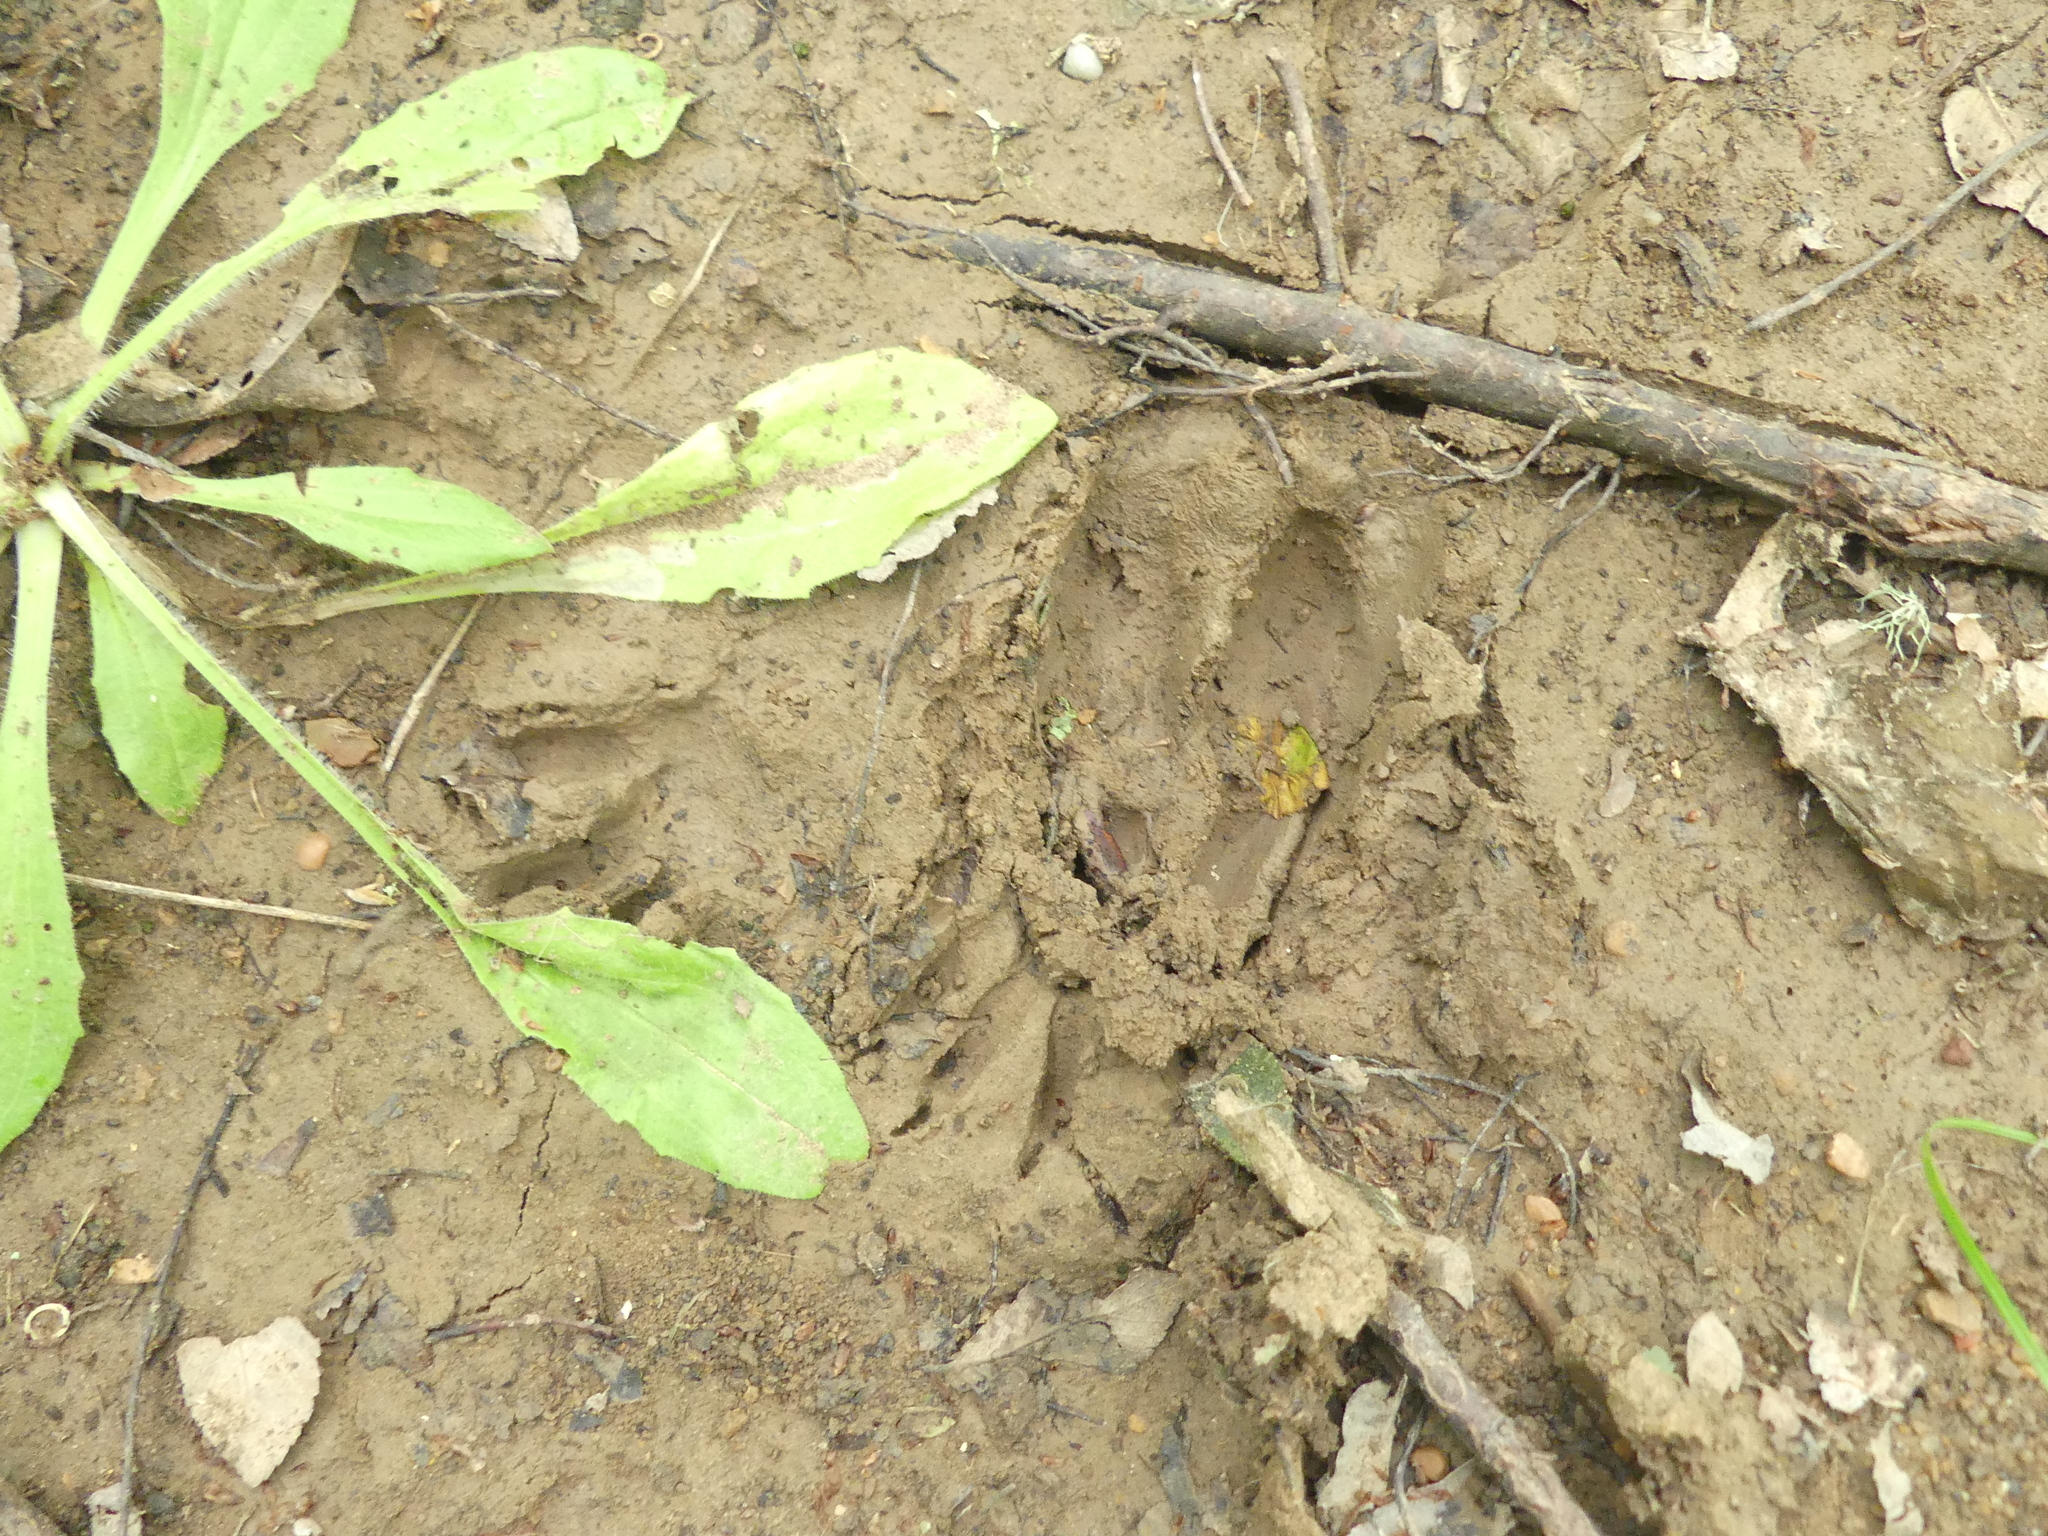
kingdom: Animalia
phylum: Chordata
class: Mammalia
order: Carnivora
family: Procyonidae
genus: Procyon
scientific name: Procyon lotor
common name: Raccoon
